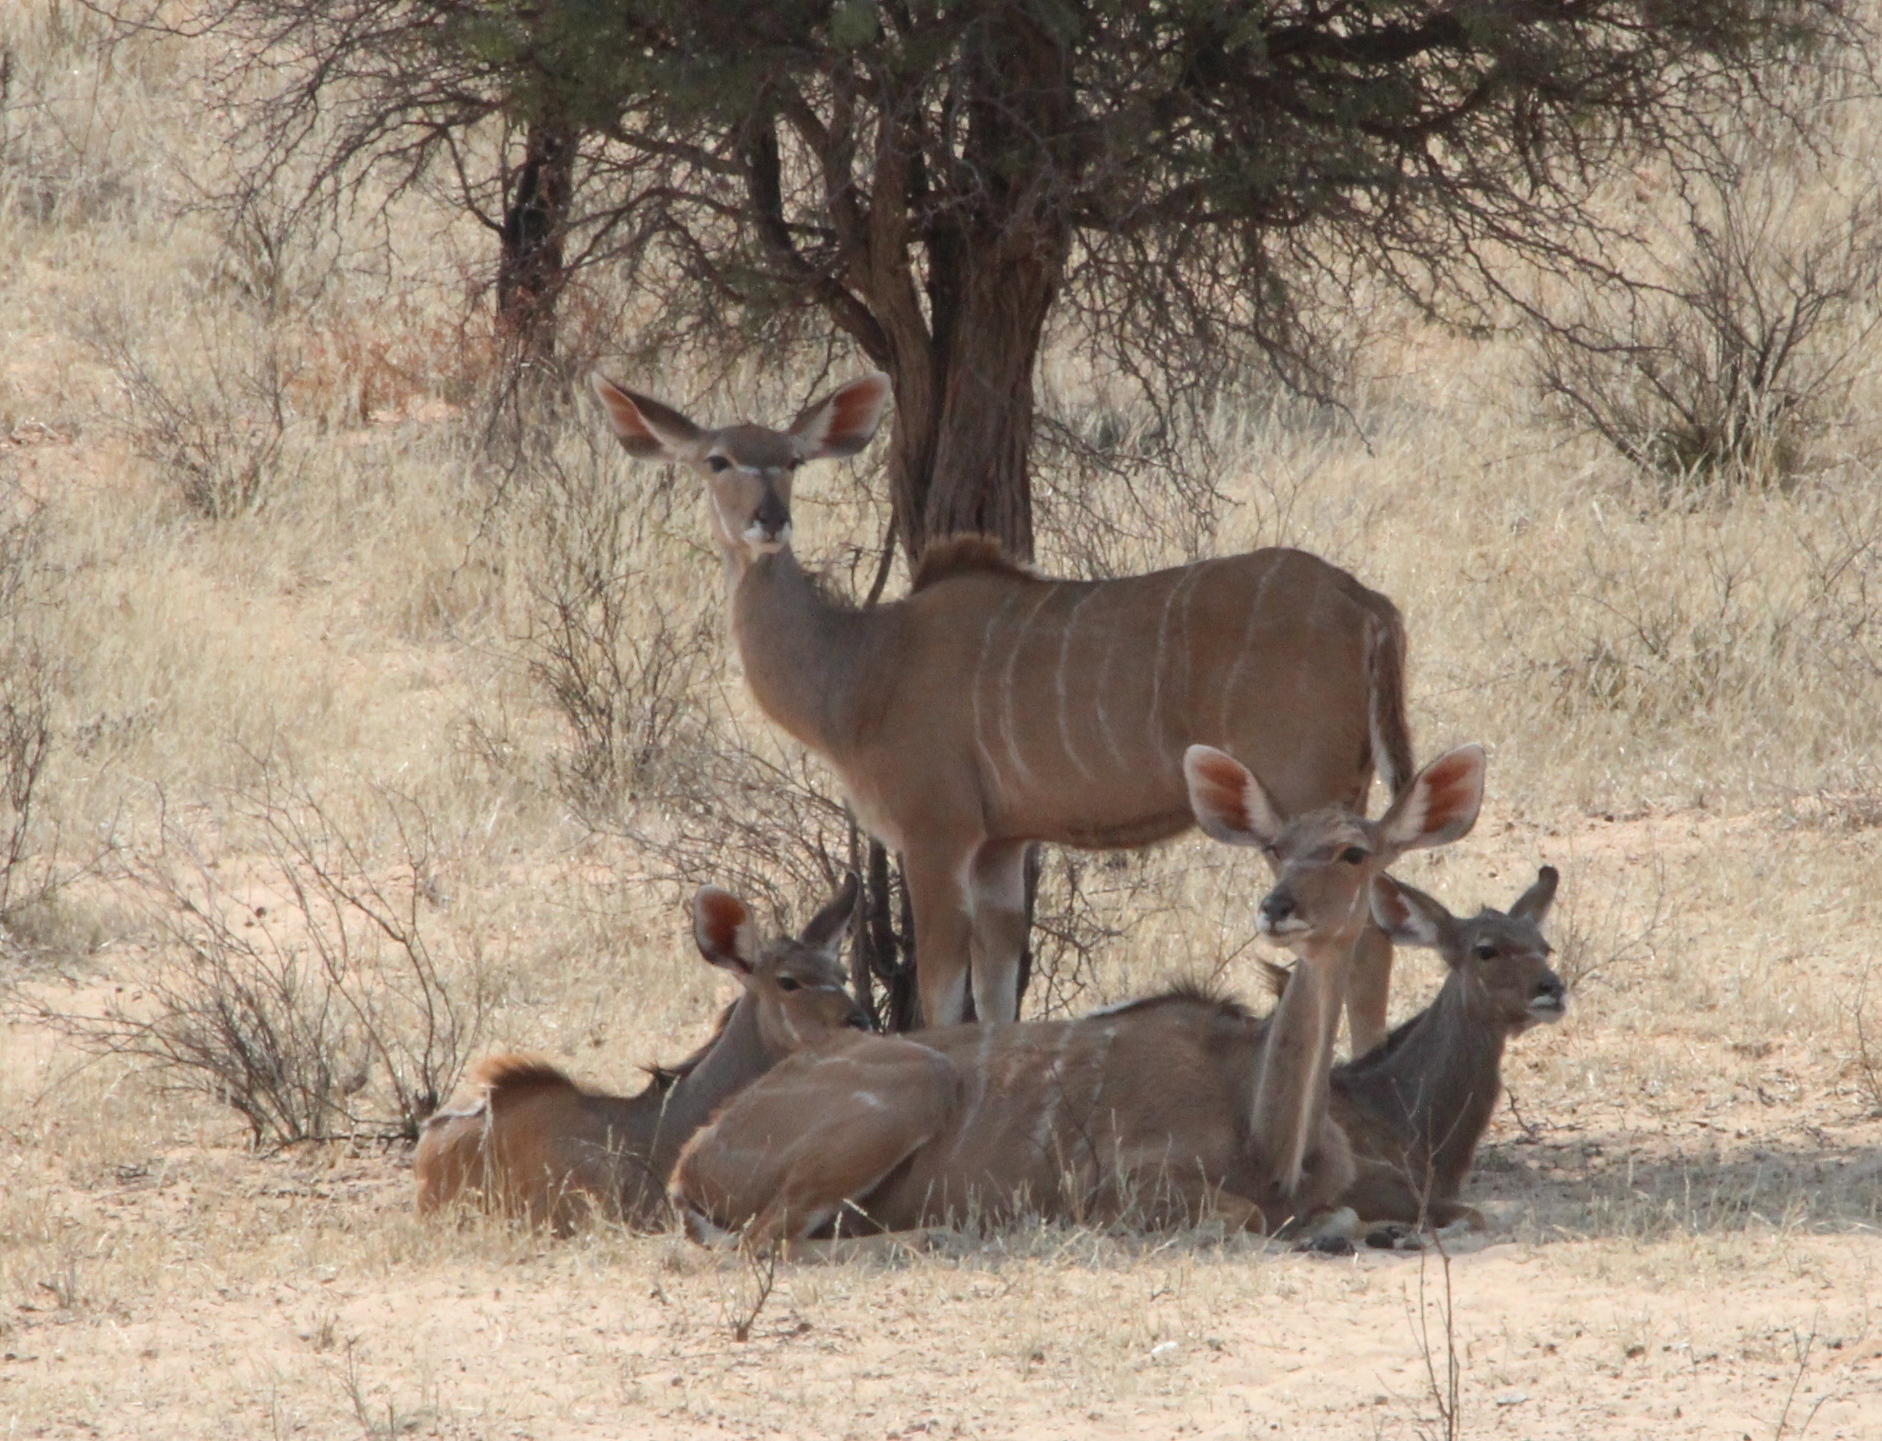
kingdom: Animalia
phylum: Chordata
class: Mammalia
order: Artiodactyla
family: Bovidae
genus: Tragelaphus
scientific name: Tragelaphus strepsiceros
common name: Greater kudu
